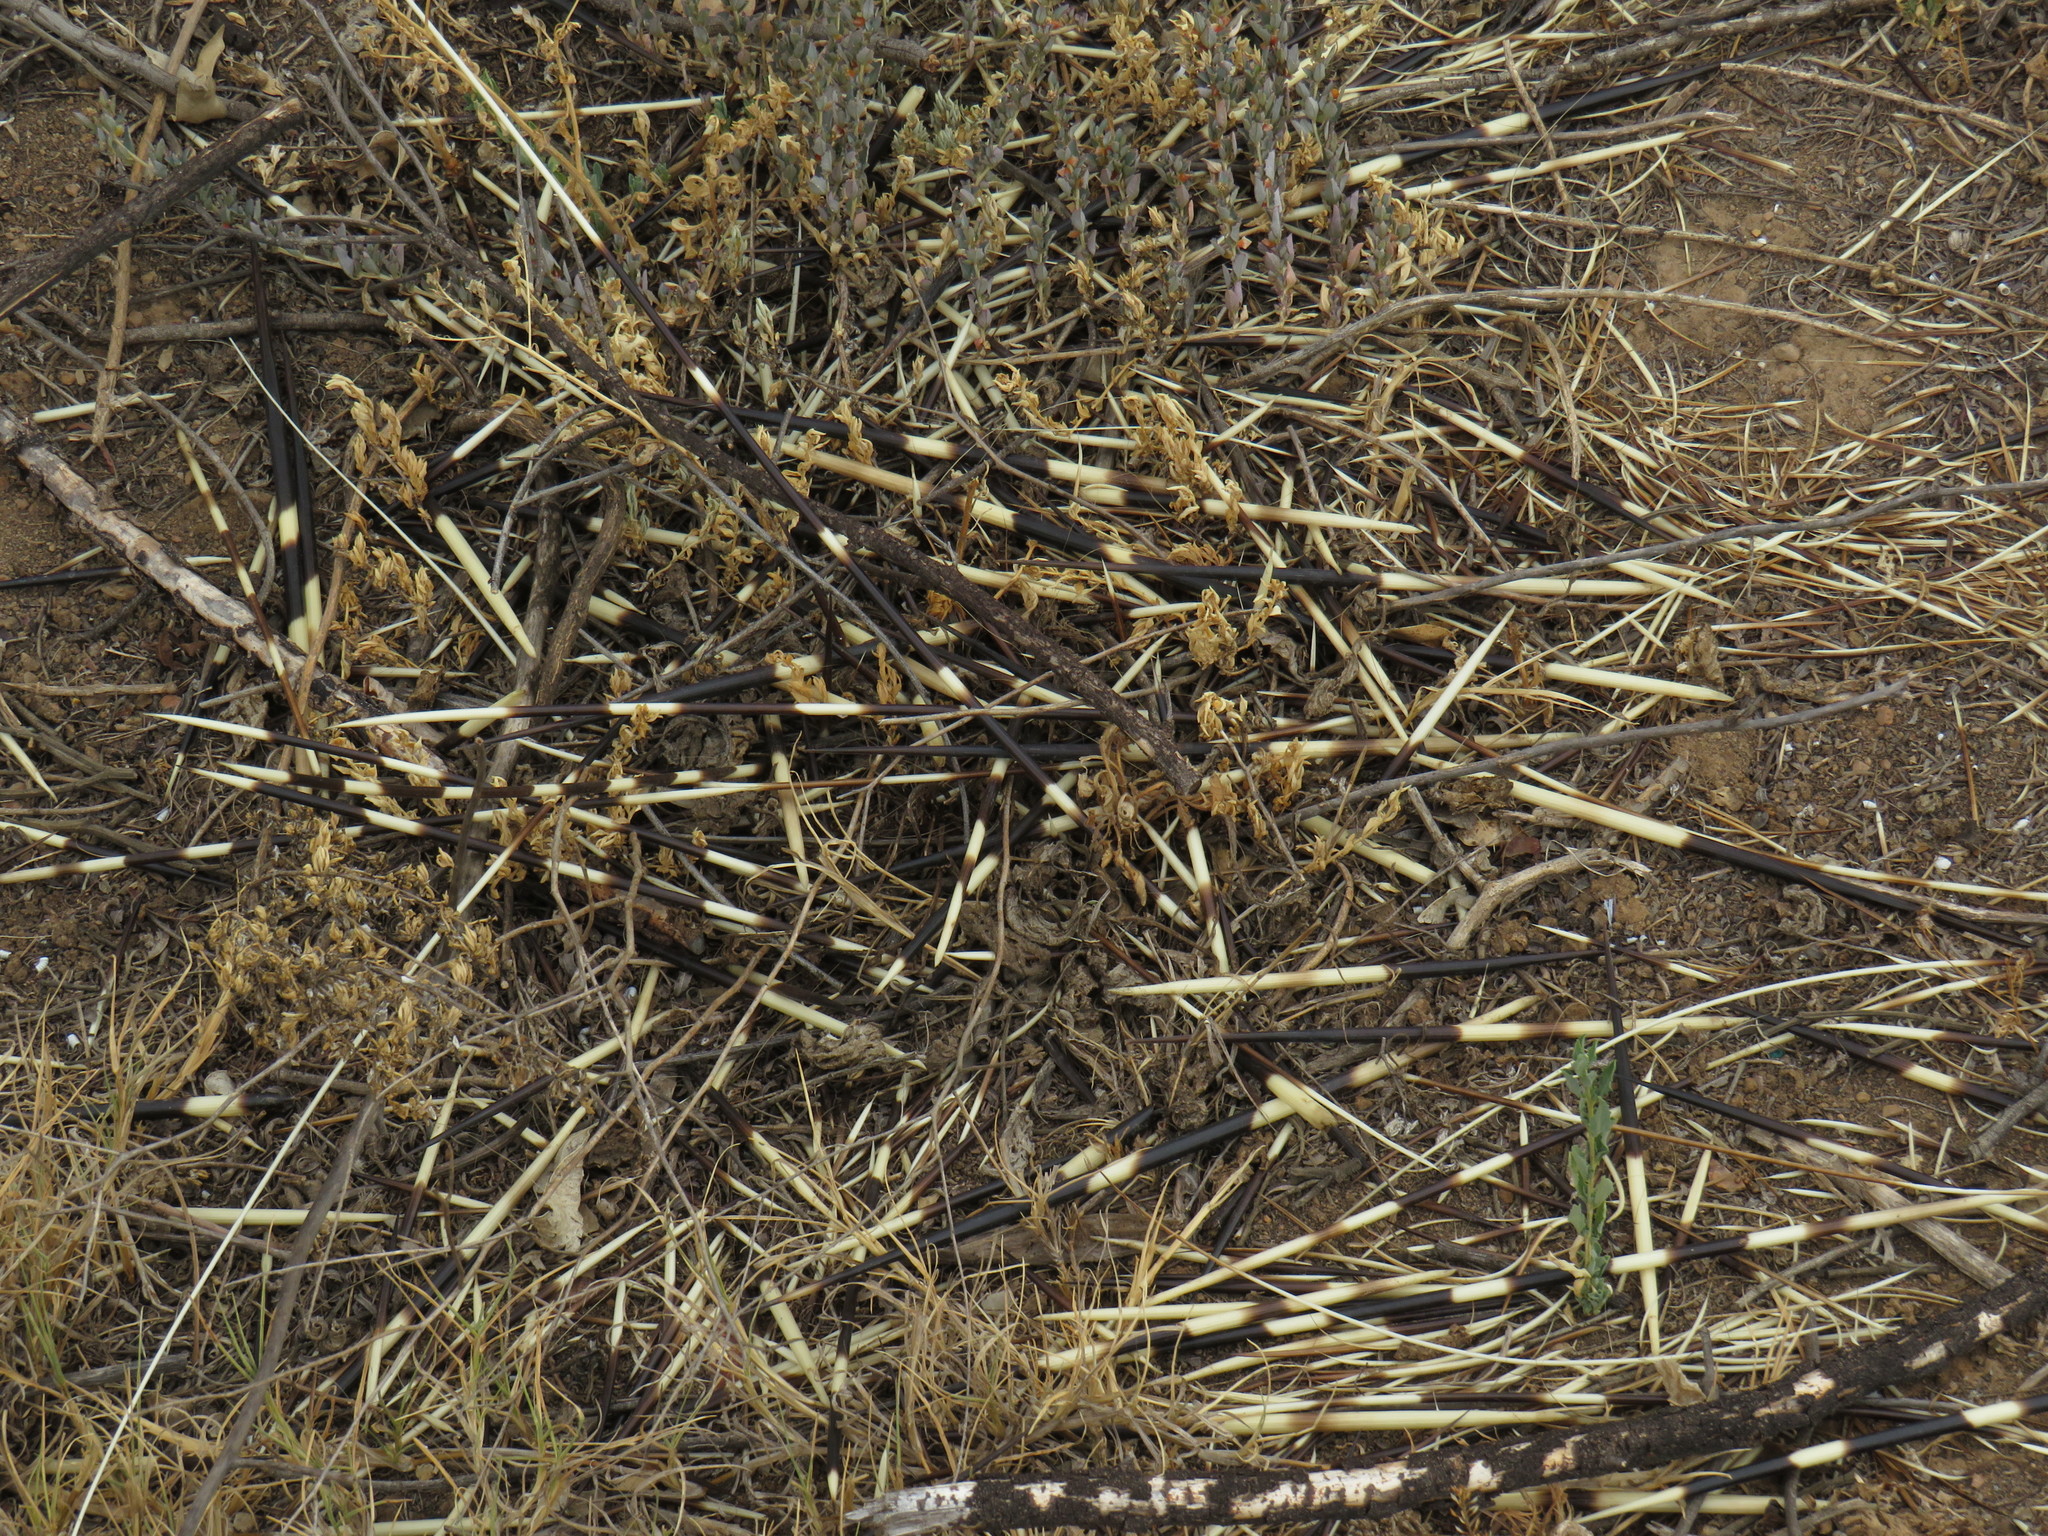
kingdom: Animalia
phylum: Chordata
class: Mammalia
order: Rodentia
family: Hystricidae
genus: Hystrix
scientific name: Hystrix africaeaustralis
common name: Cape porcupine
